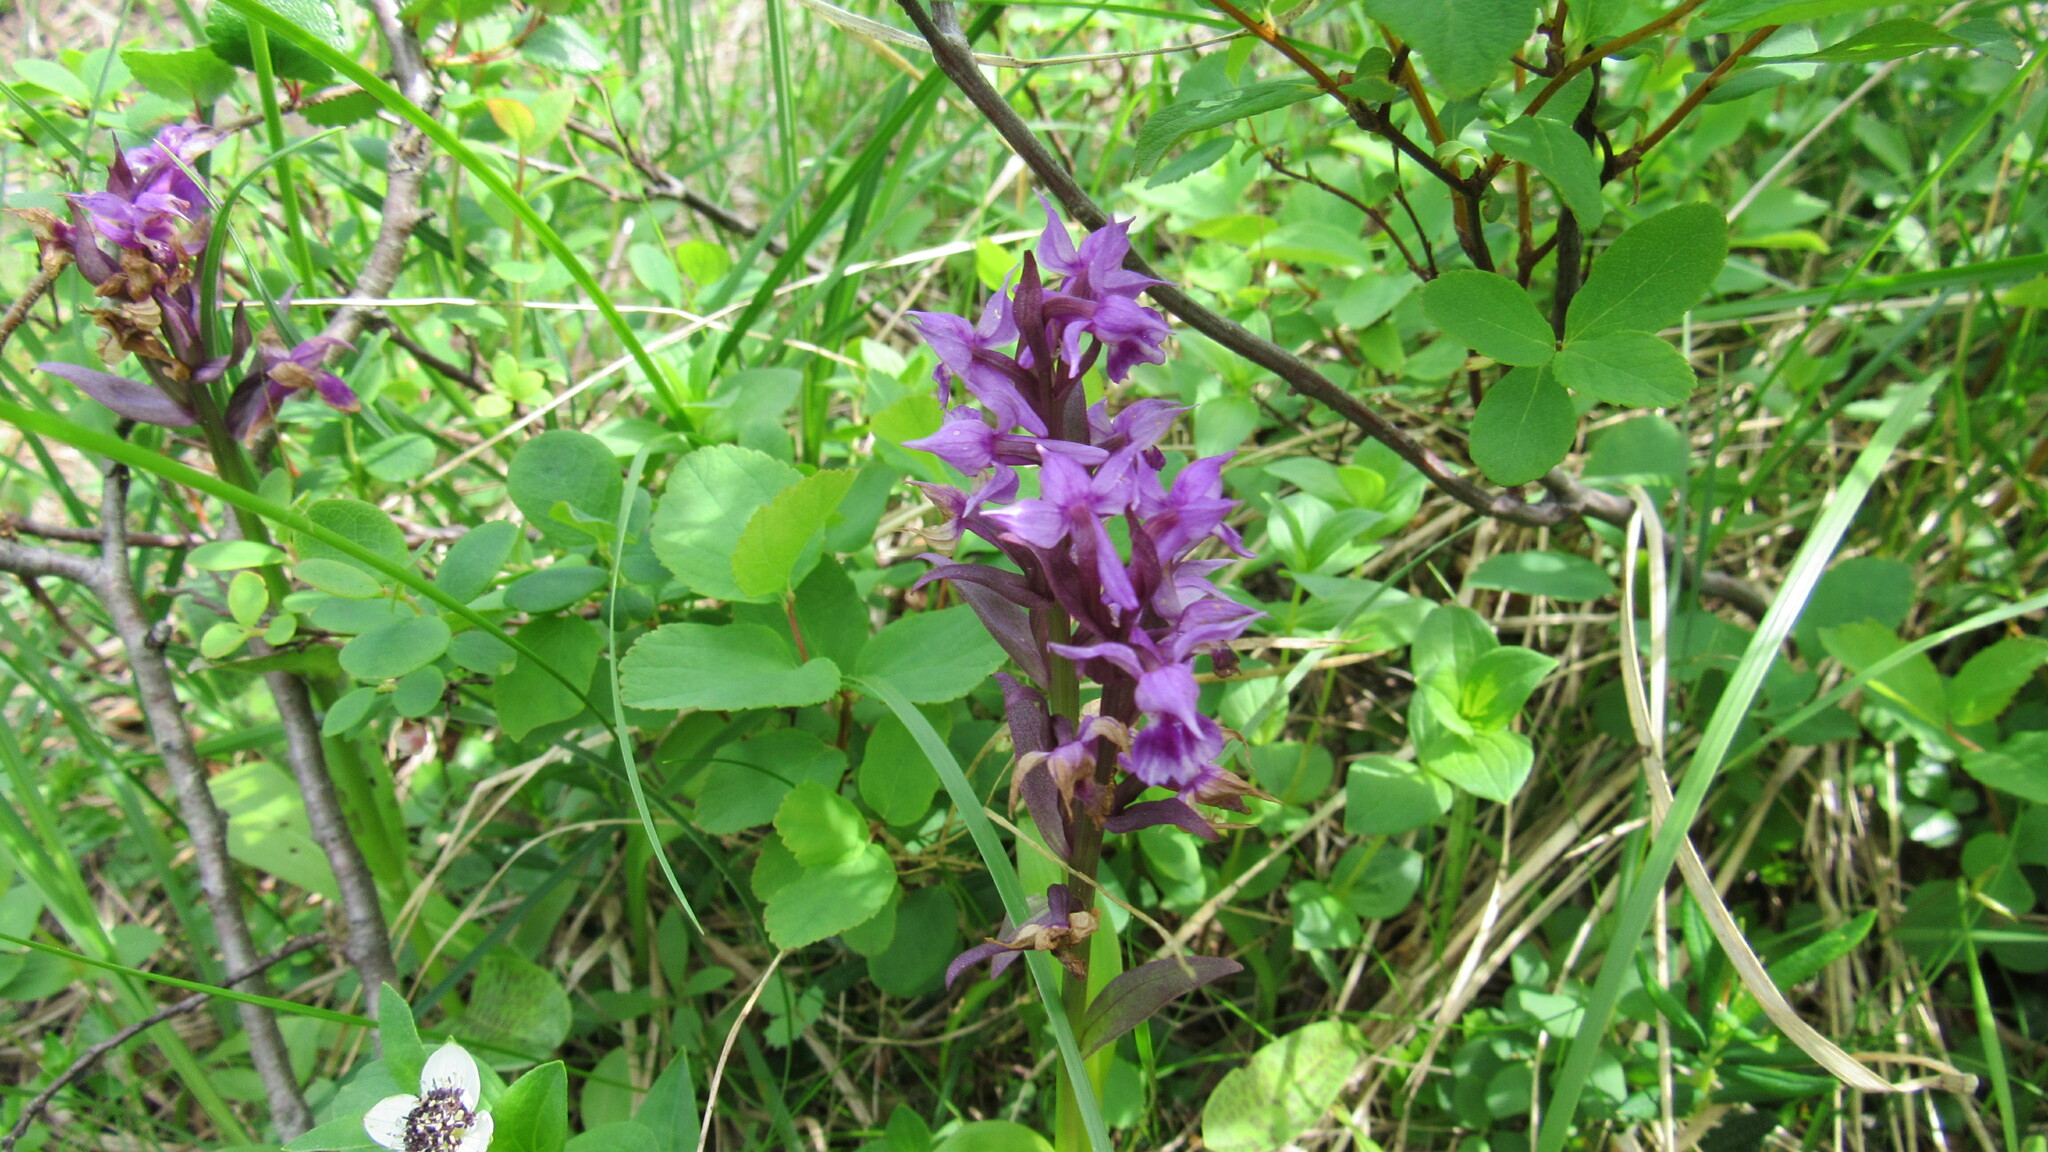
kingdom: Plantae
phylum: Tracheophyta
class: Liliopsida
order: Asparagales
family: Orchidaceae
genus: Dactylorhiza
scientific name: Dactylorhiza aristata
